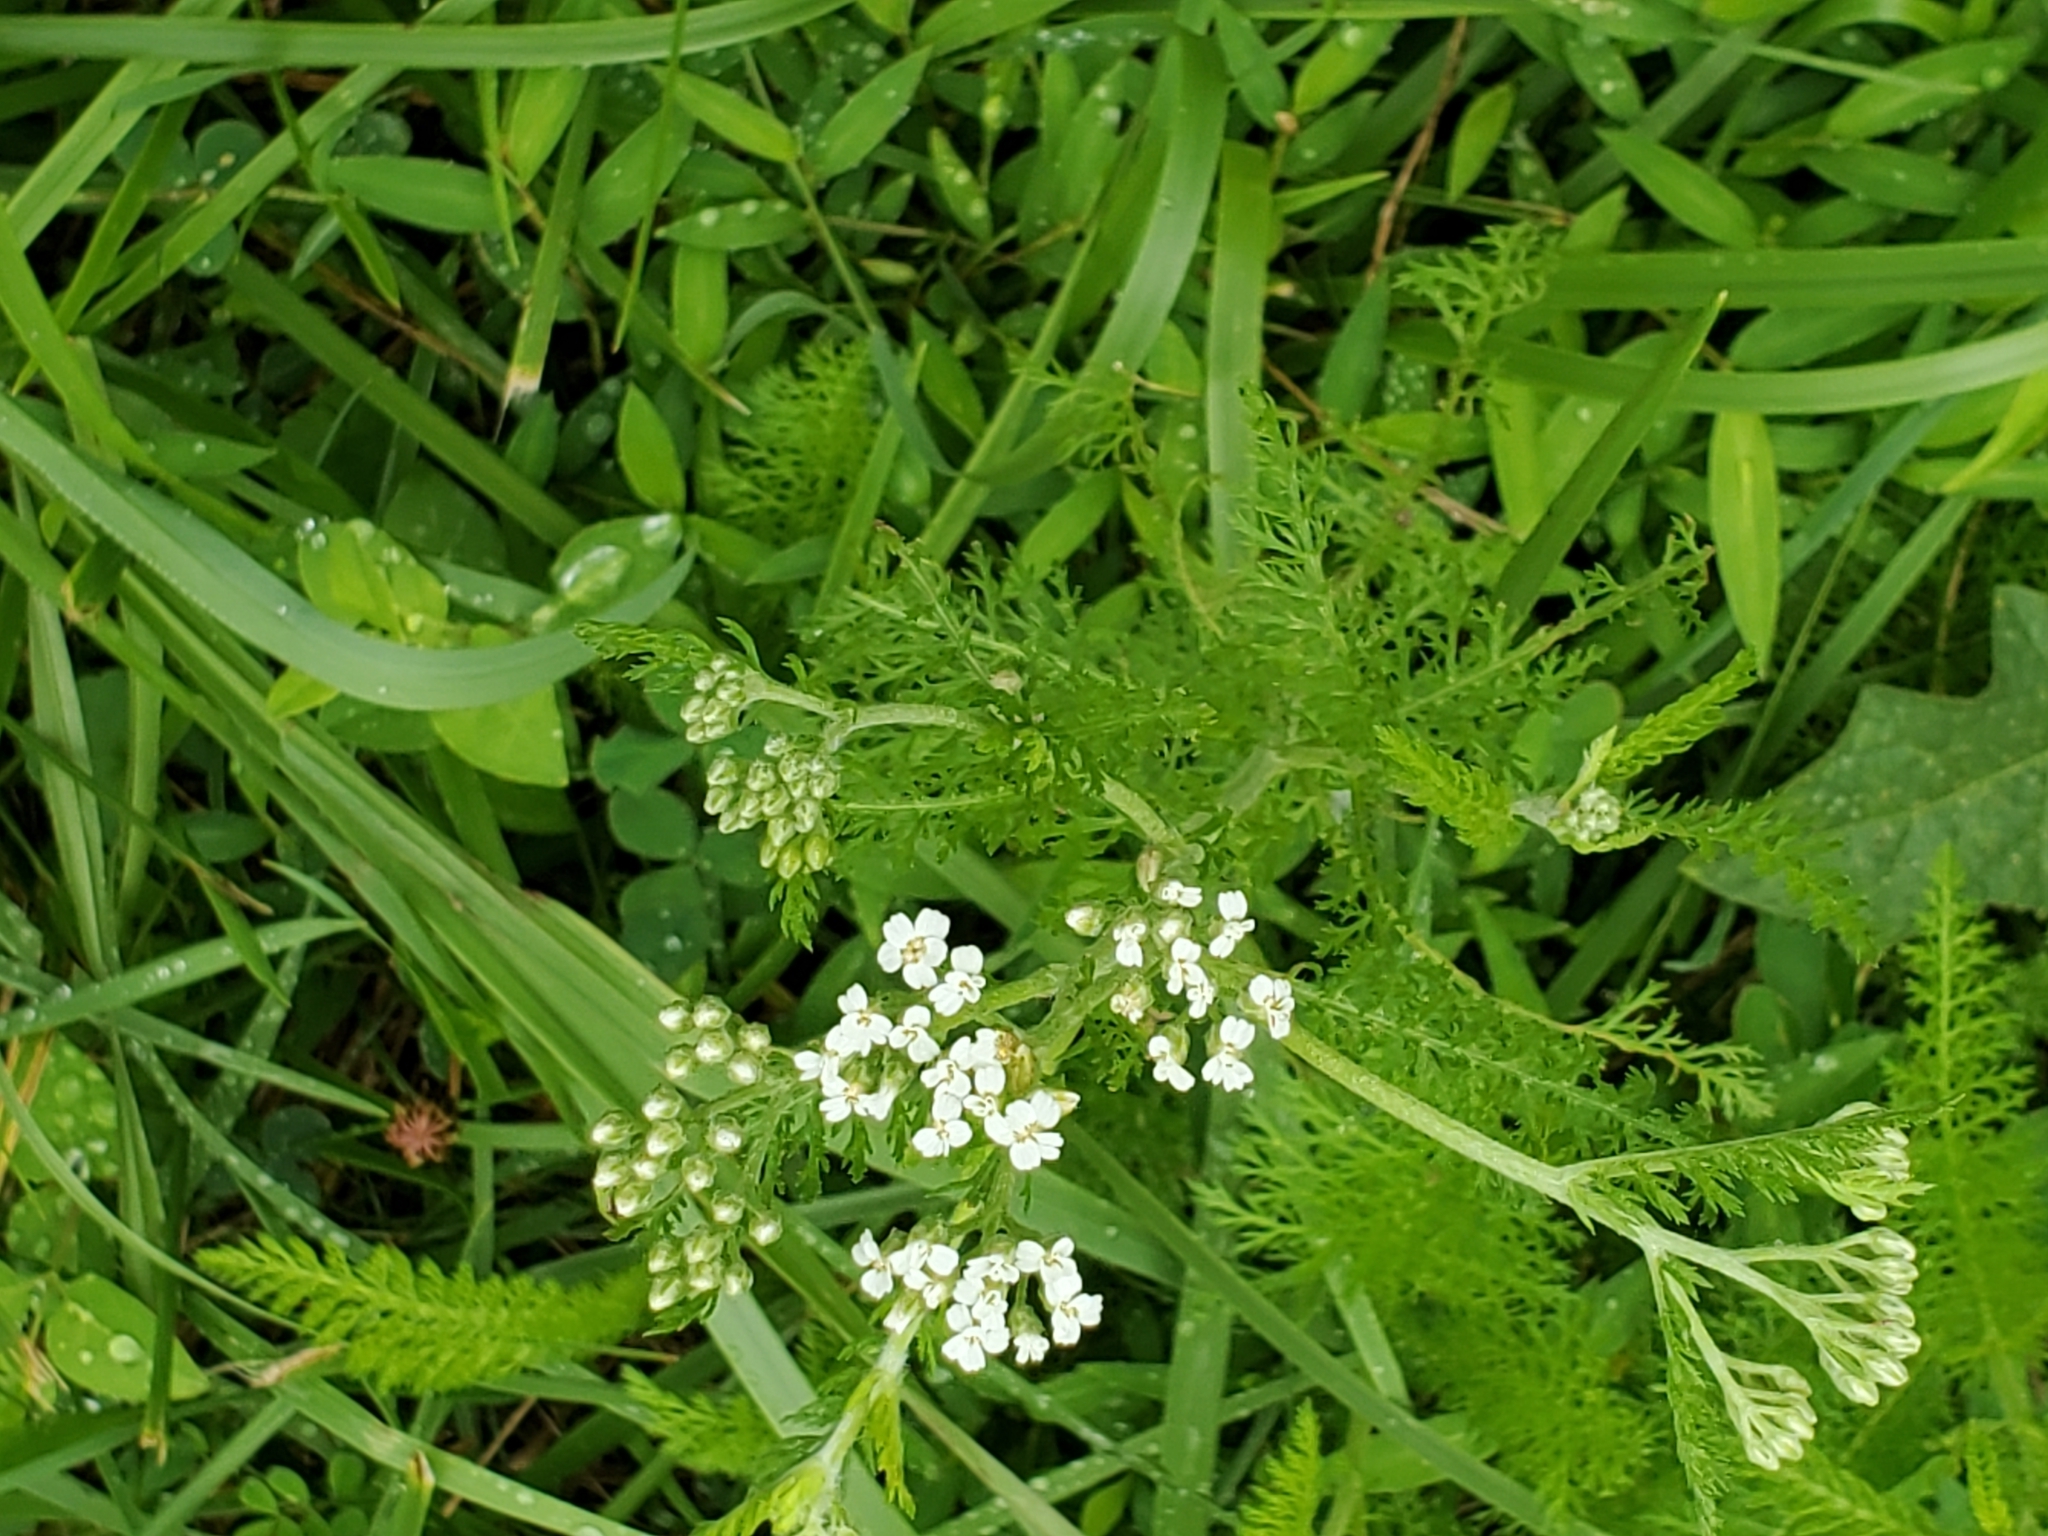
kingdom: Plantae
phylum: Tracheophyta
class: Magnoliopsida
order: Asterales
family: Asteraceae
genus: Achillea
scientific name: Achillea millefolium
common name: Yarrow
